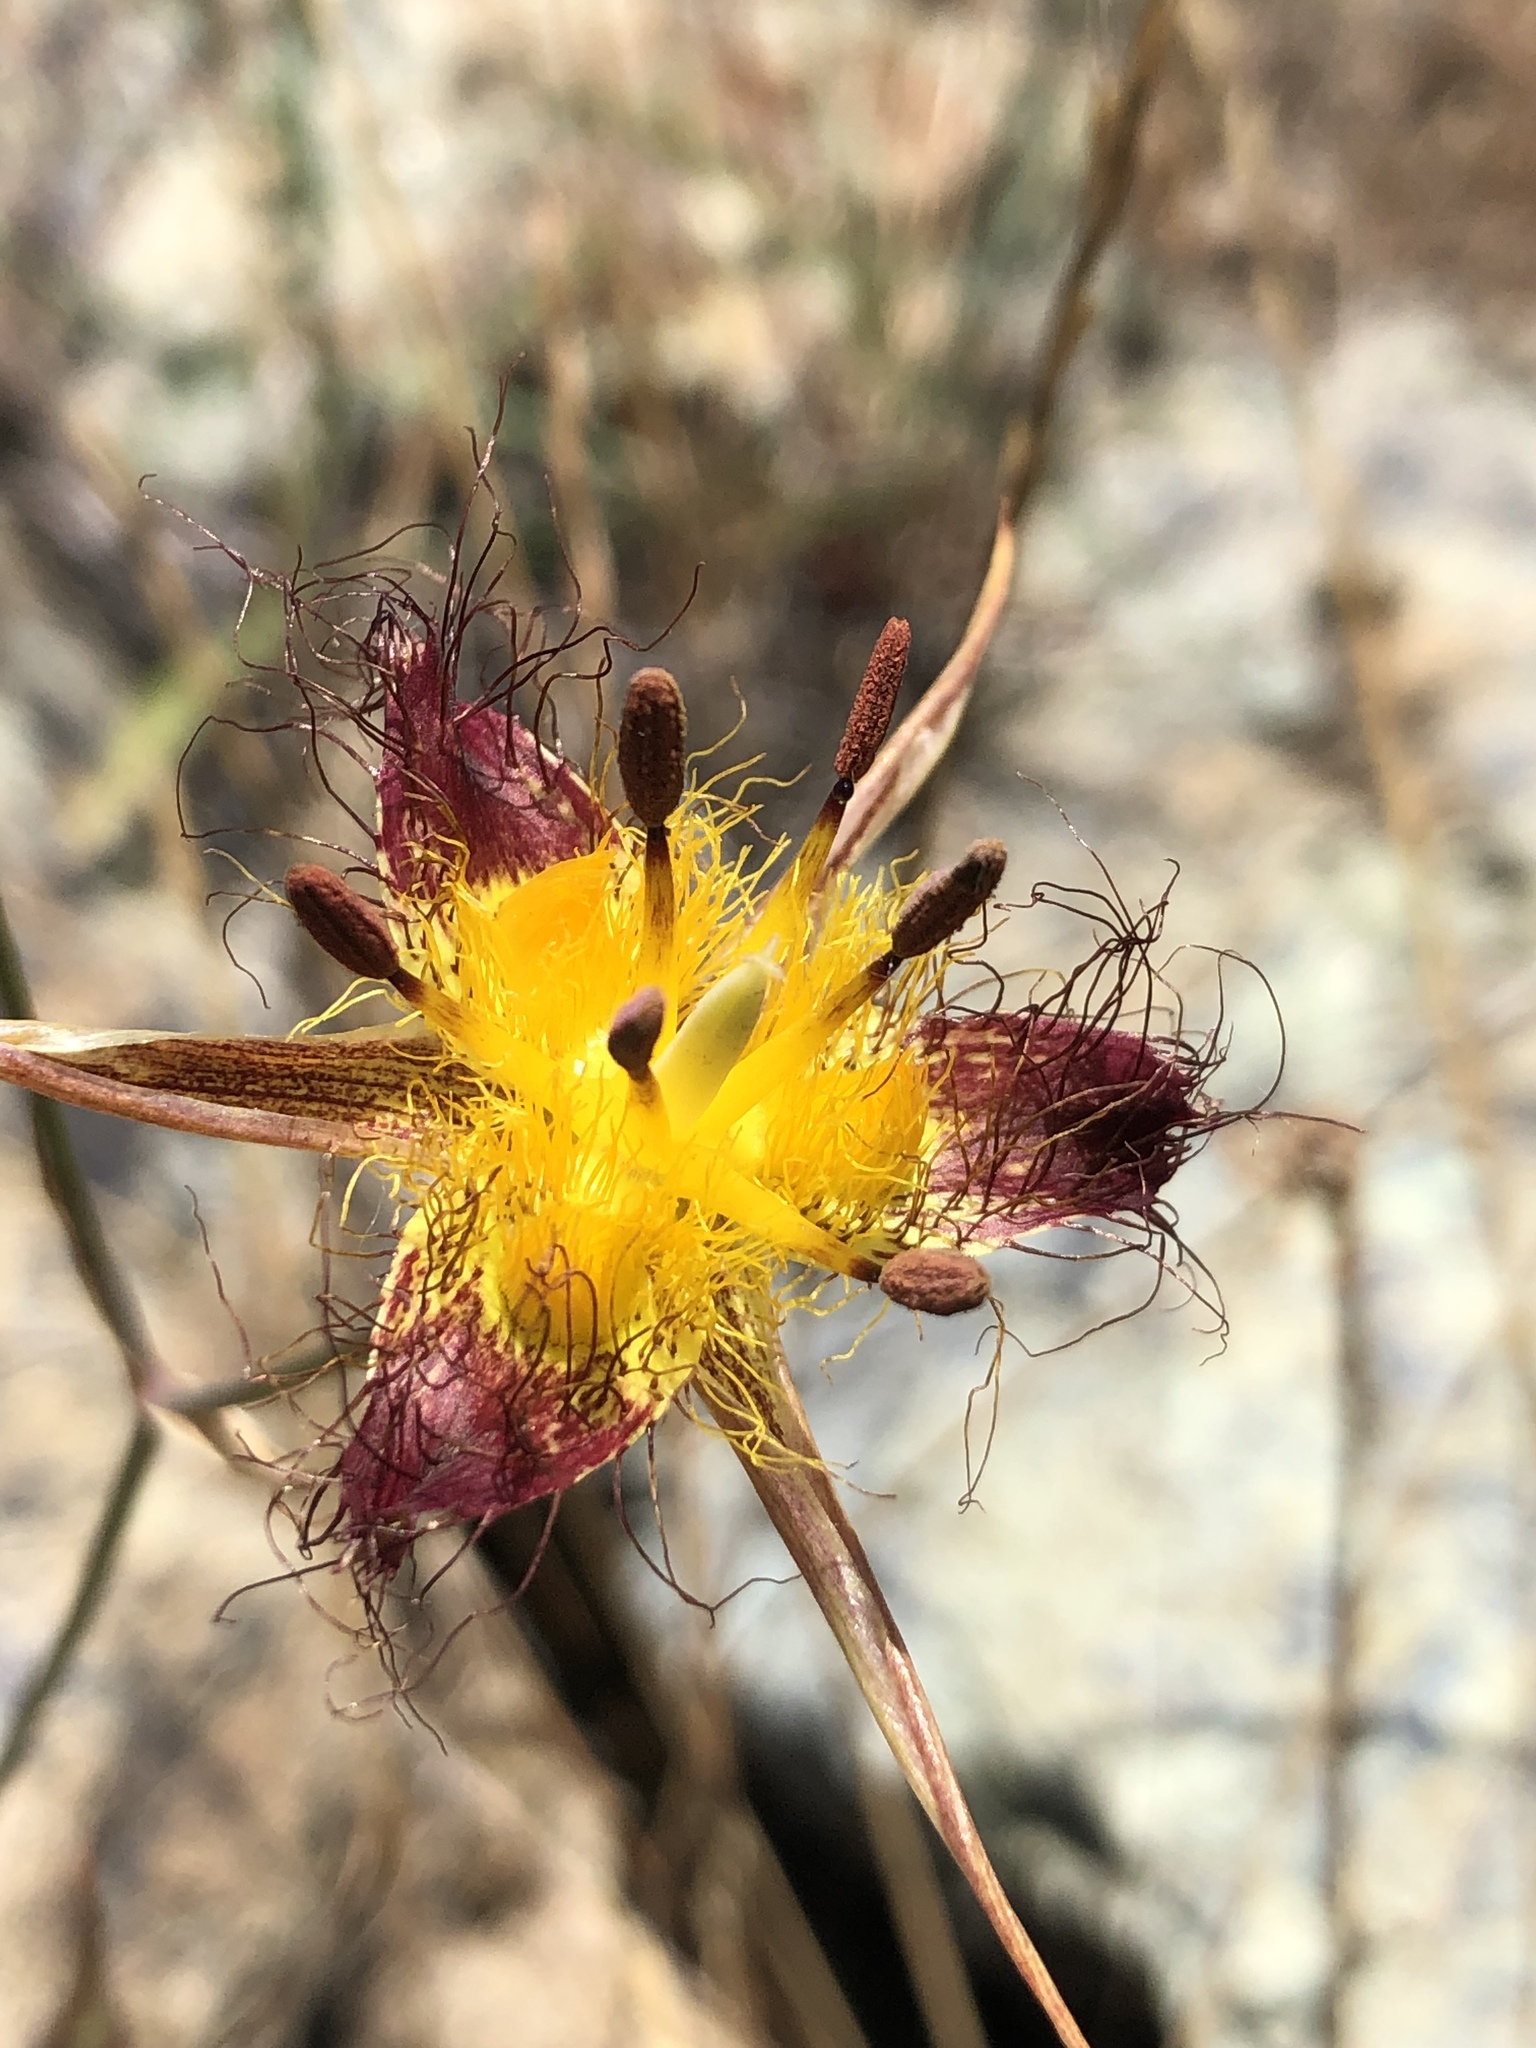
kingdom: Plantae
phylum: Tracheophyta
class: Liliopsida
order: Liliales
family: Liliaceae
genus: Calochortus
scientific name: Calochortus obispoensis
